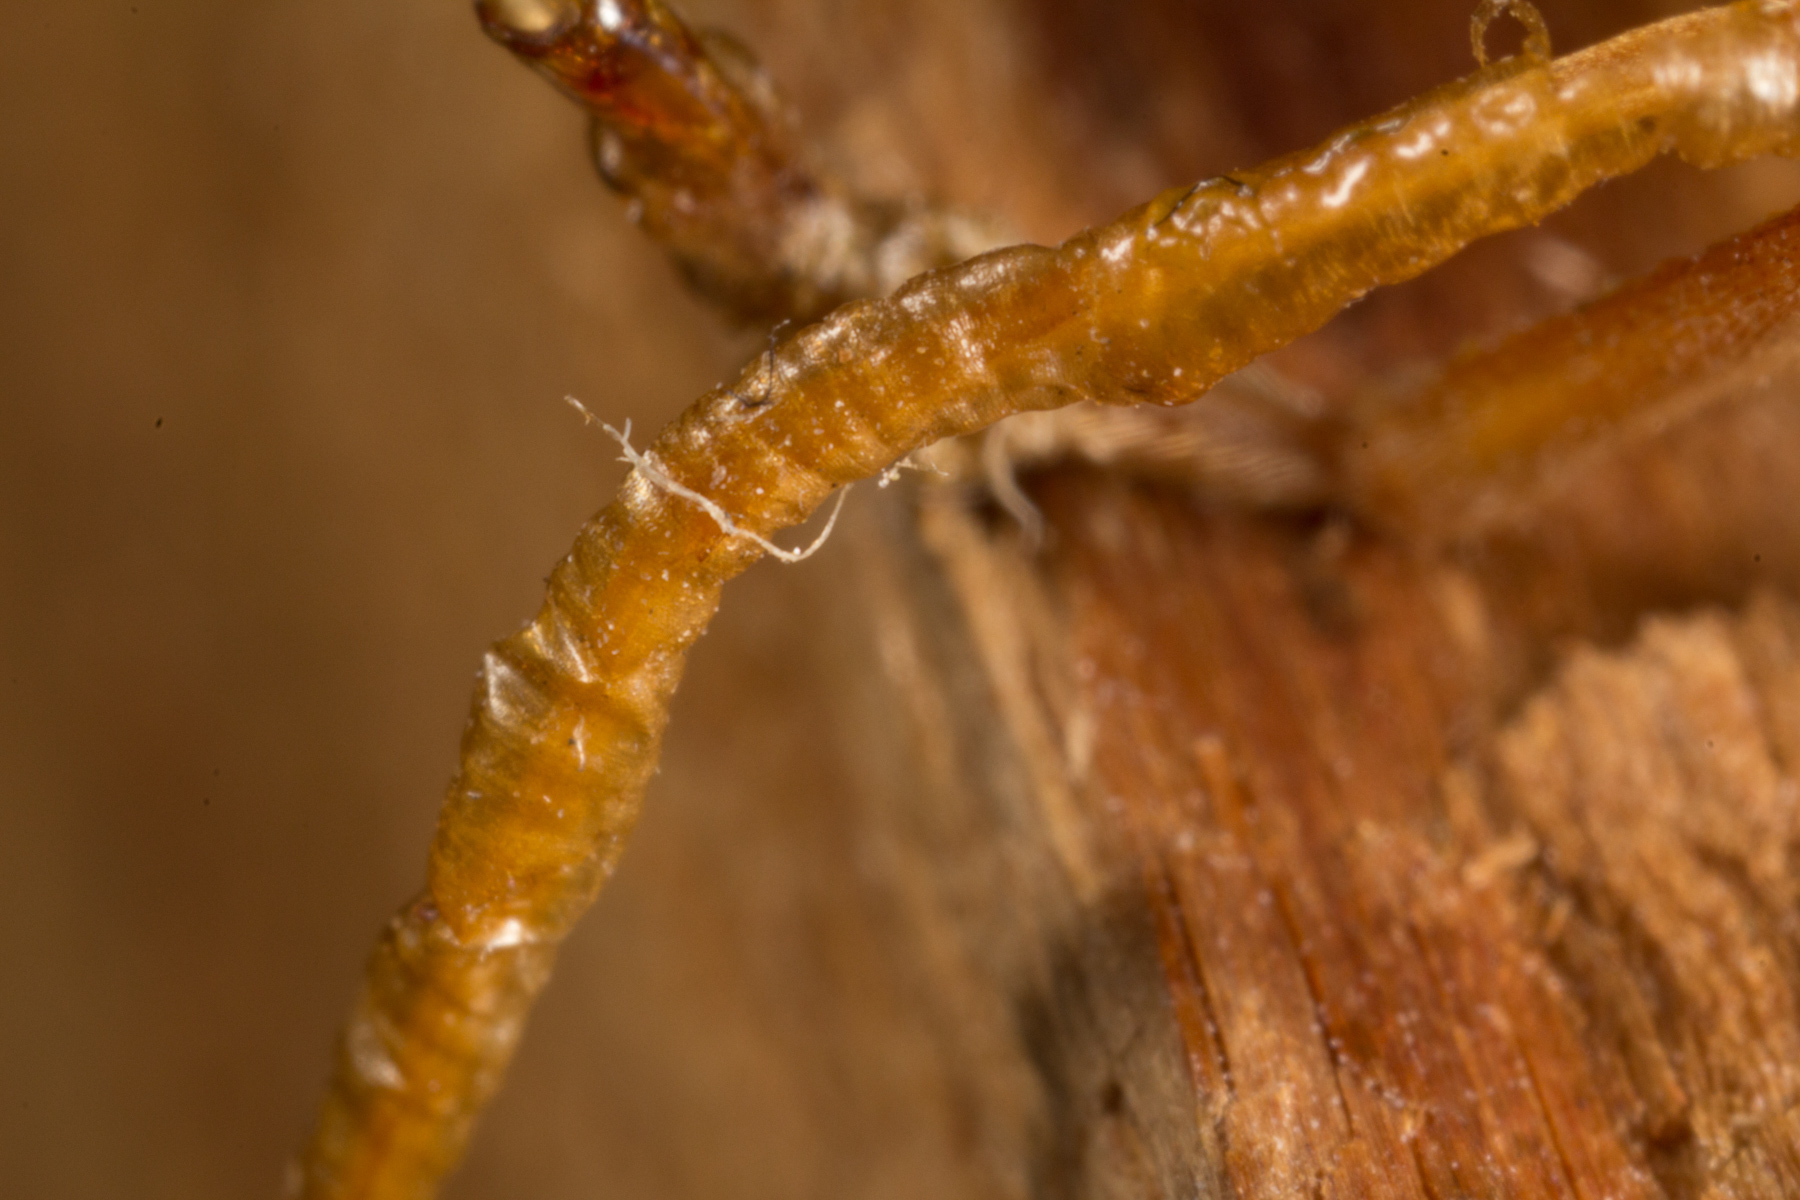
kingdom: Animalia
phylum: Arthropoda
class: Insecta
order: Coleoptera
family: Cerambycidae
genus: Knulliana
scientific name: Knulliana cincta
